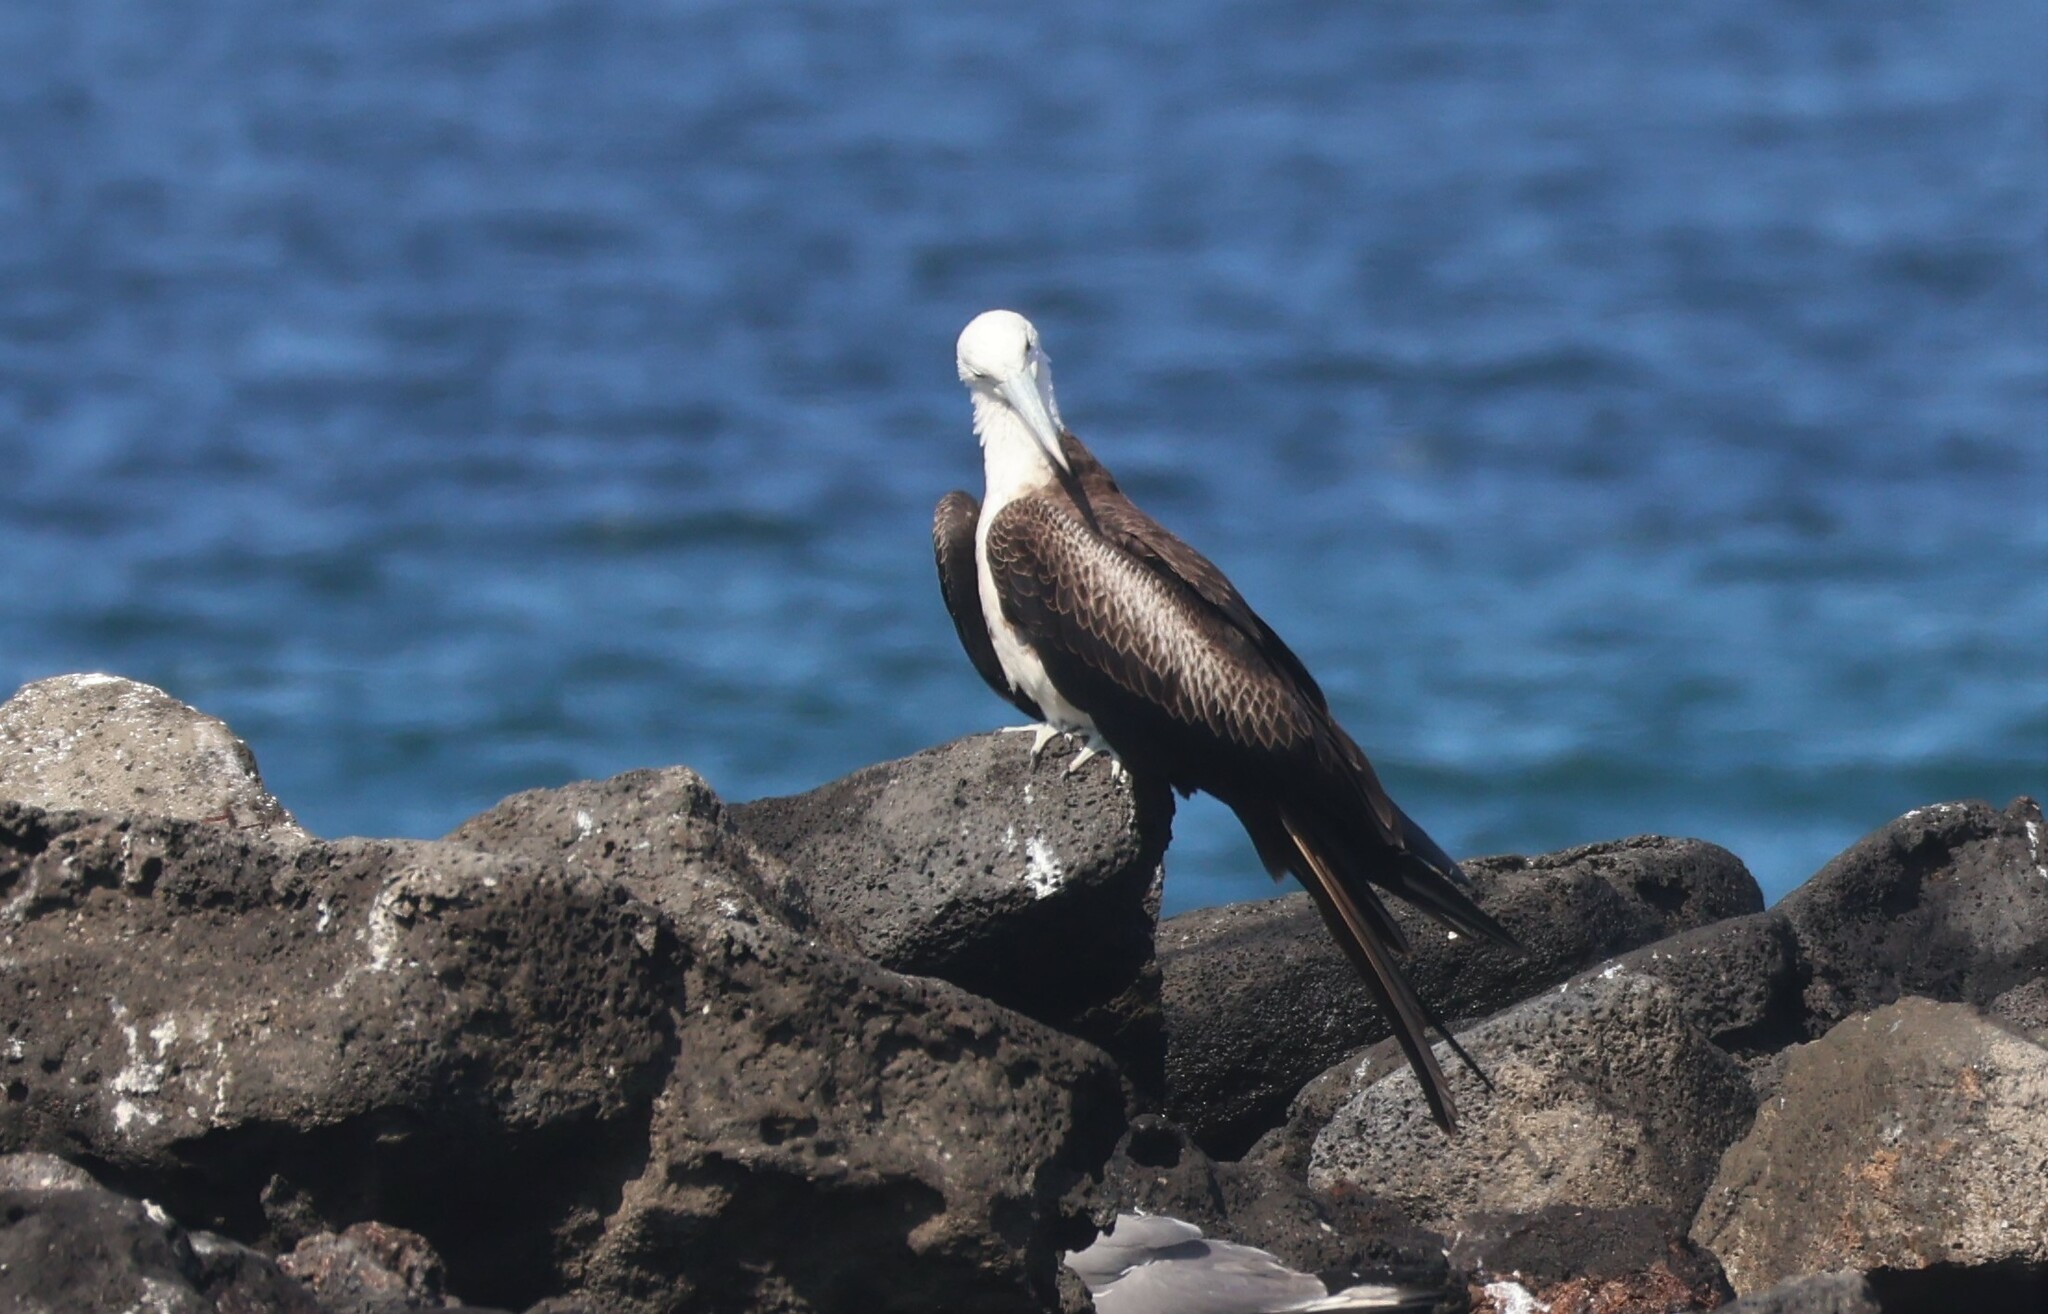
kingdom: Animalia
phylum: Chordata
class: Aves
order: Suliformes
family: Fregatidae
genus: Fregata
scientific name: Fregata magnificens
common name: Magnificent frigatebird
